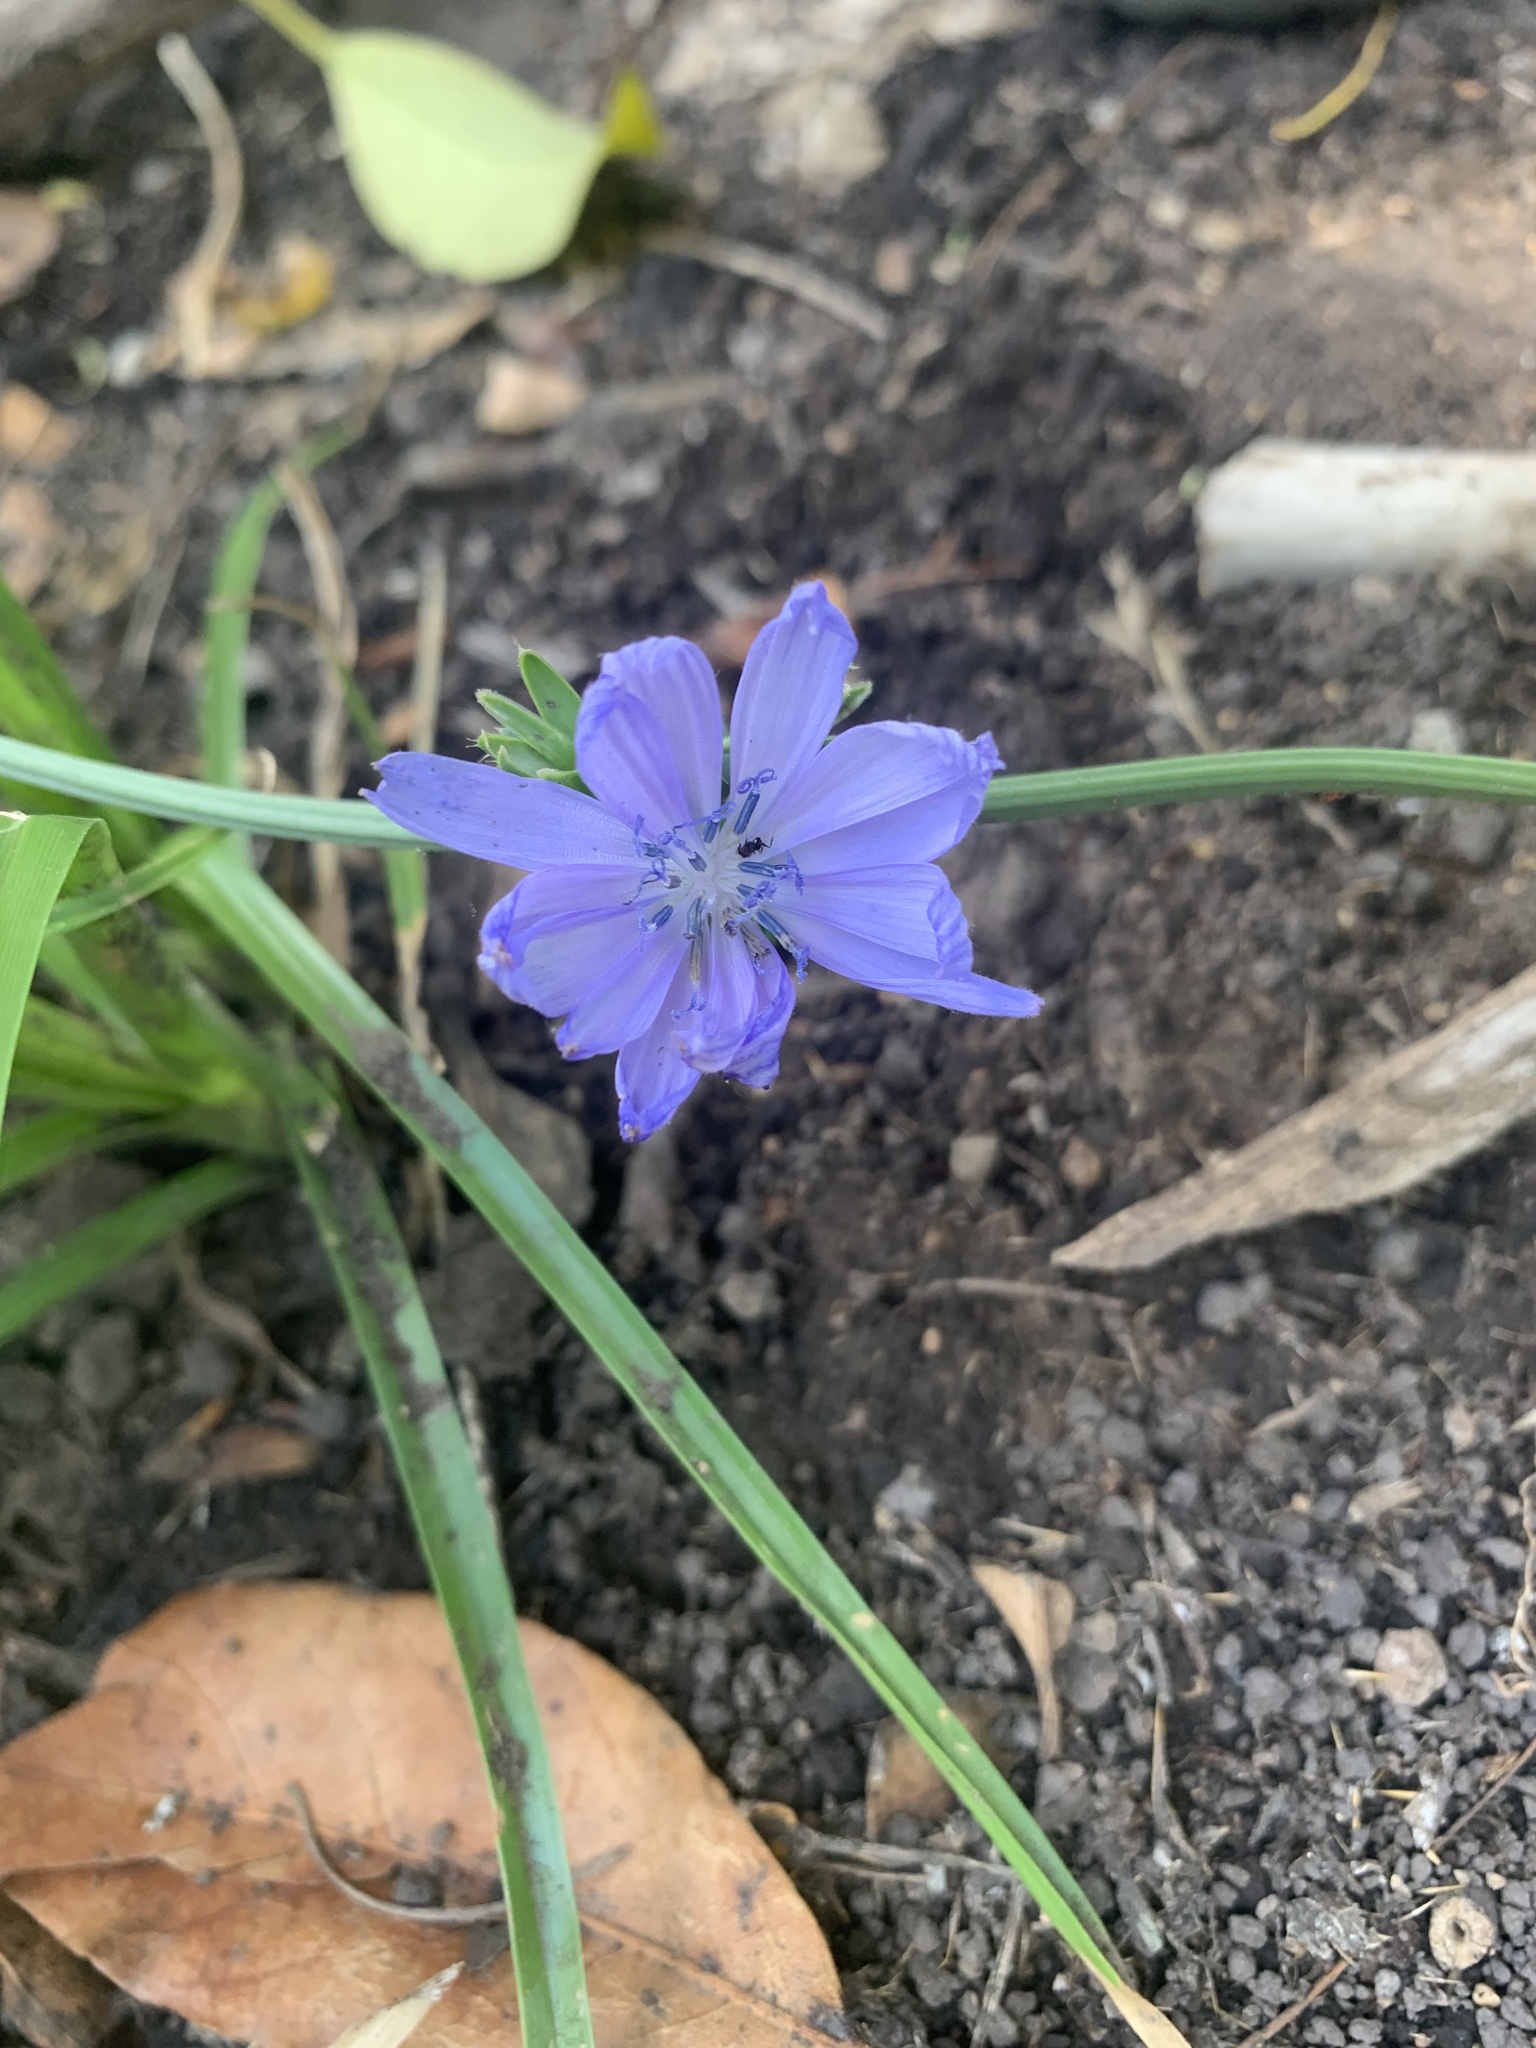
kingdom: Plantae
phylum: Tracheophyta
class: Magnoliopsida
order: Asterales
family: Asteraceae
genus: Cichorium
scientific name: Cichorium intybus
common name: Chicory
